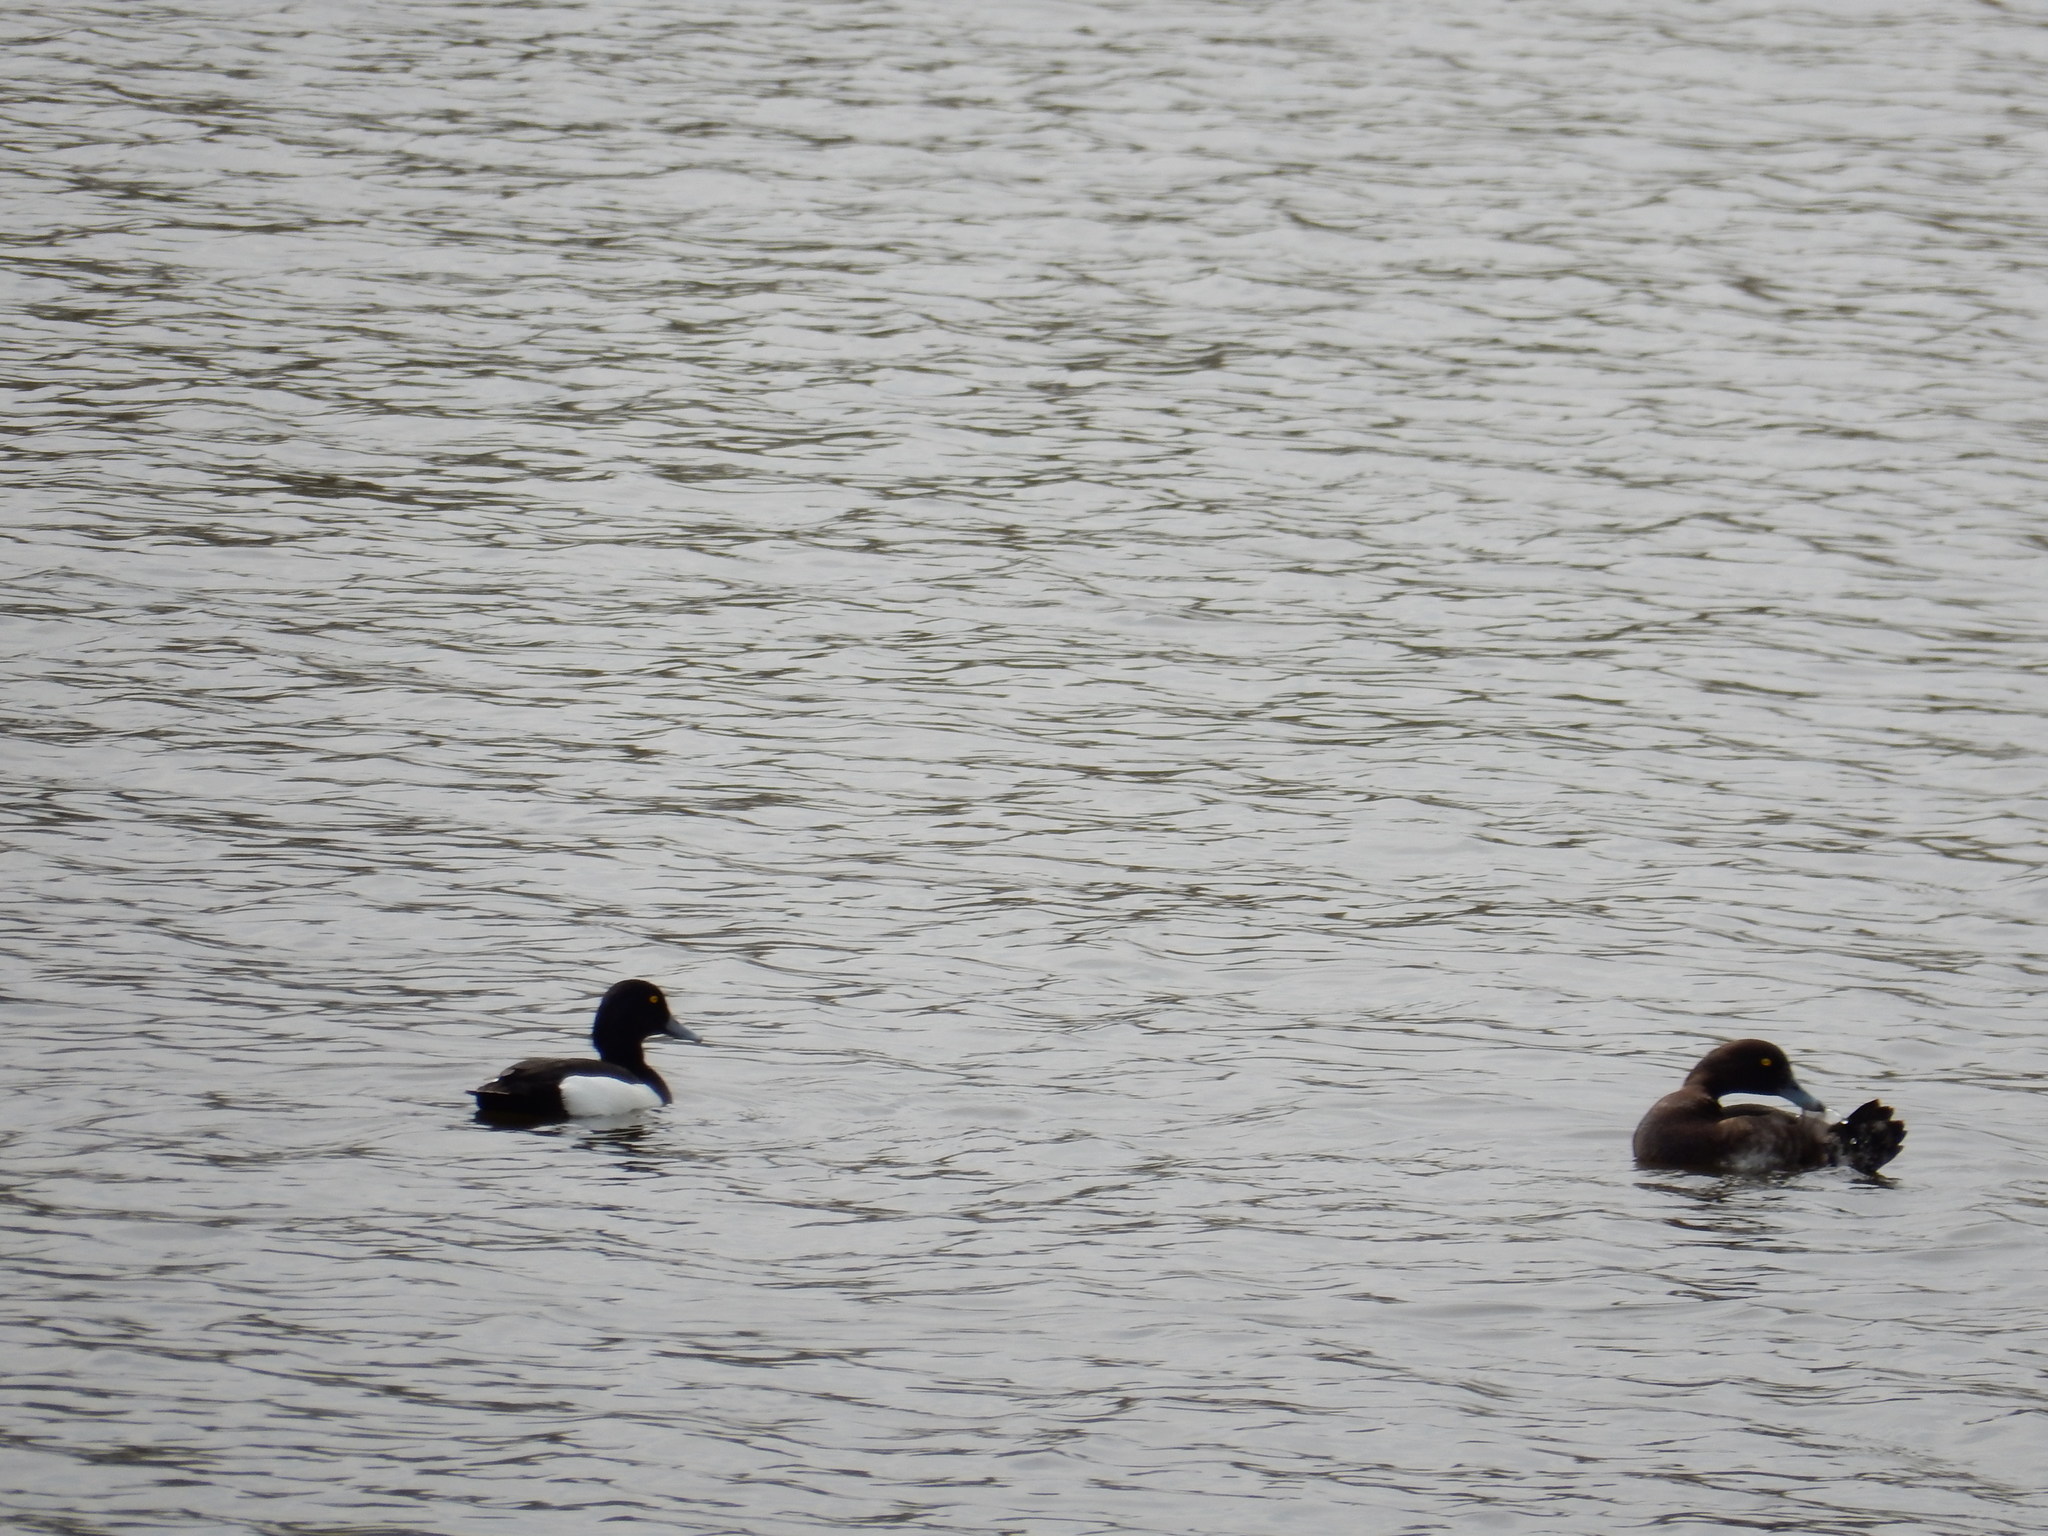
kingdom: Animalia
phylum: Chordata
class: Aves
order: Anseriformes
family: Anatidae
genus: Aythya
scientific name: Aythya fuligula
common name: Tufted duck
